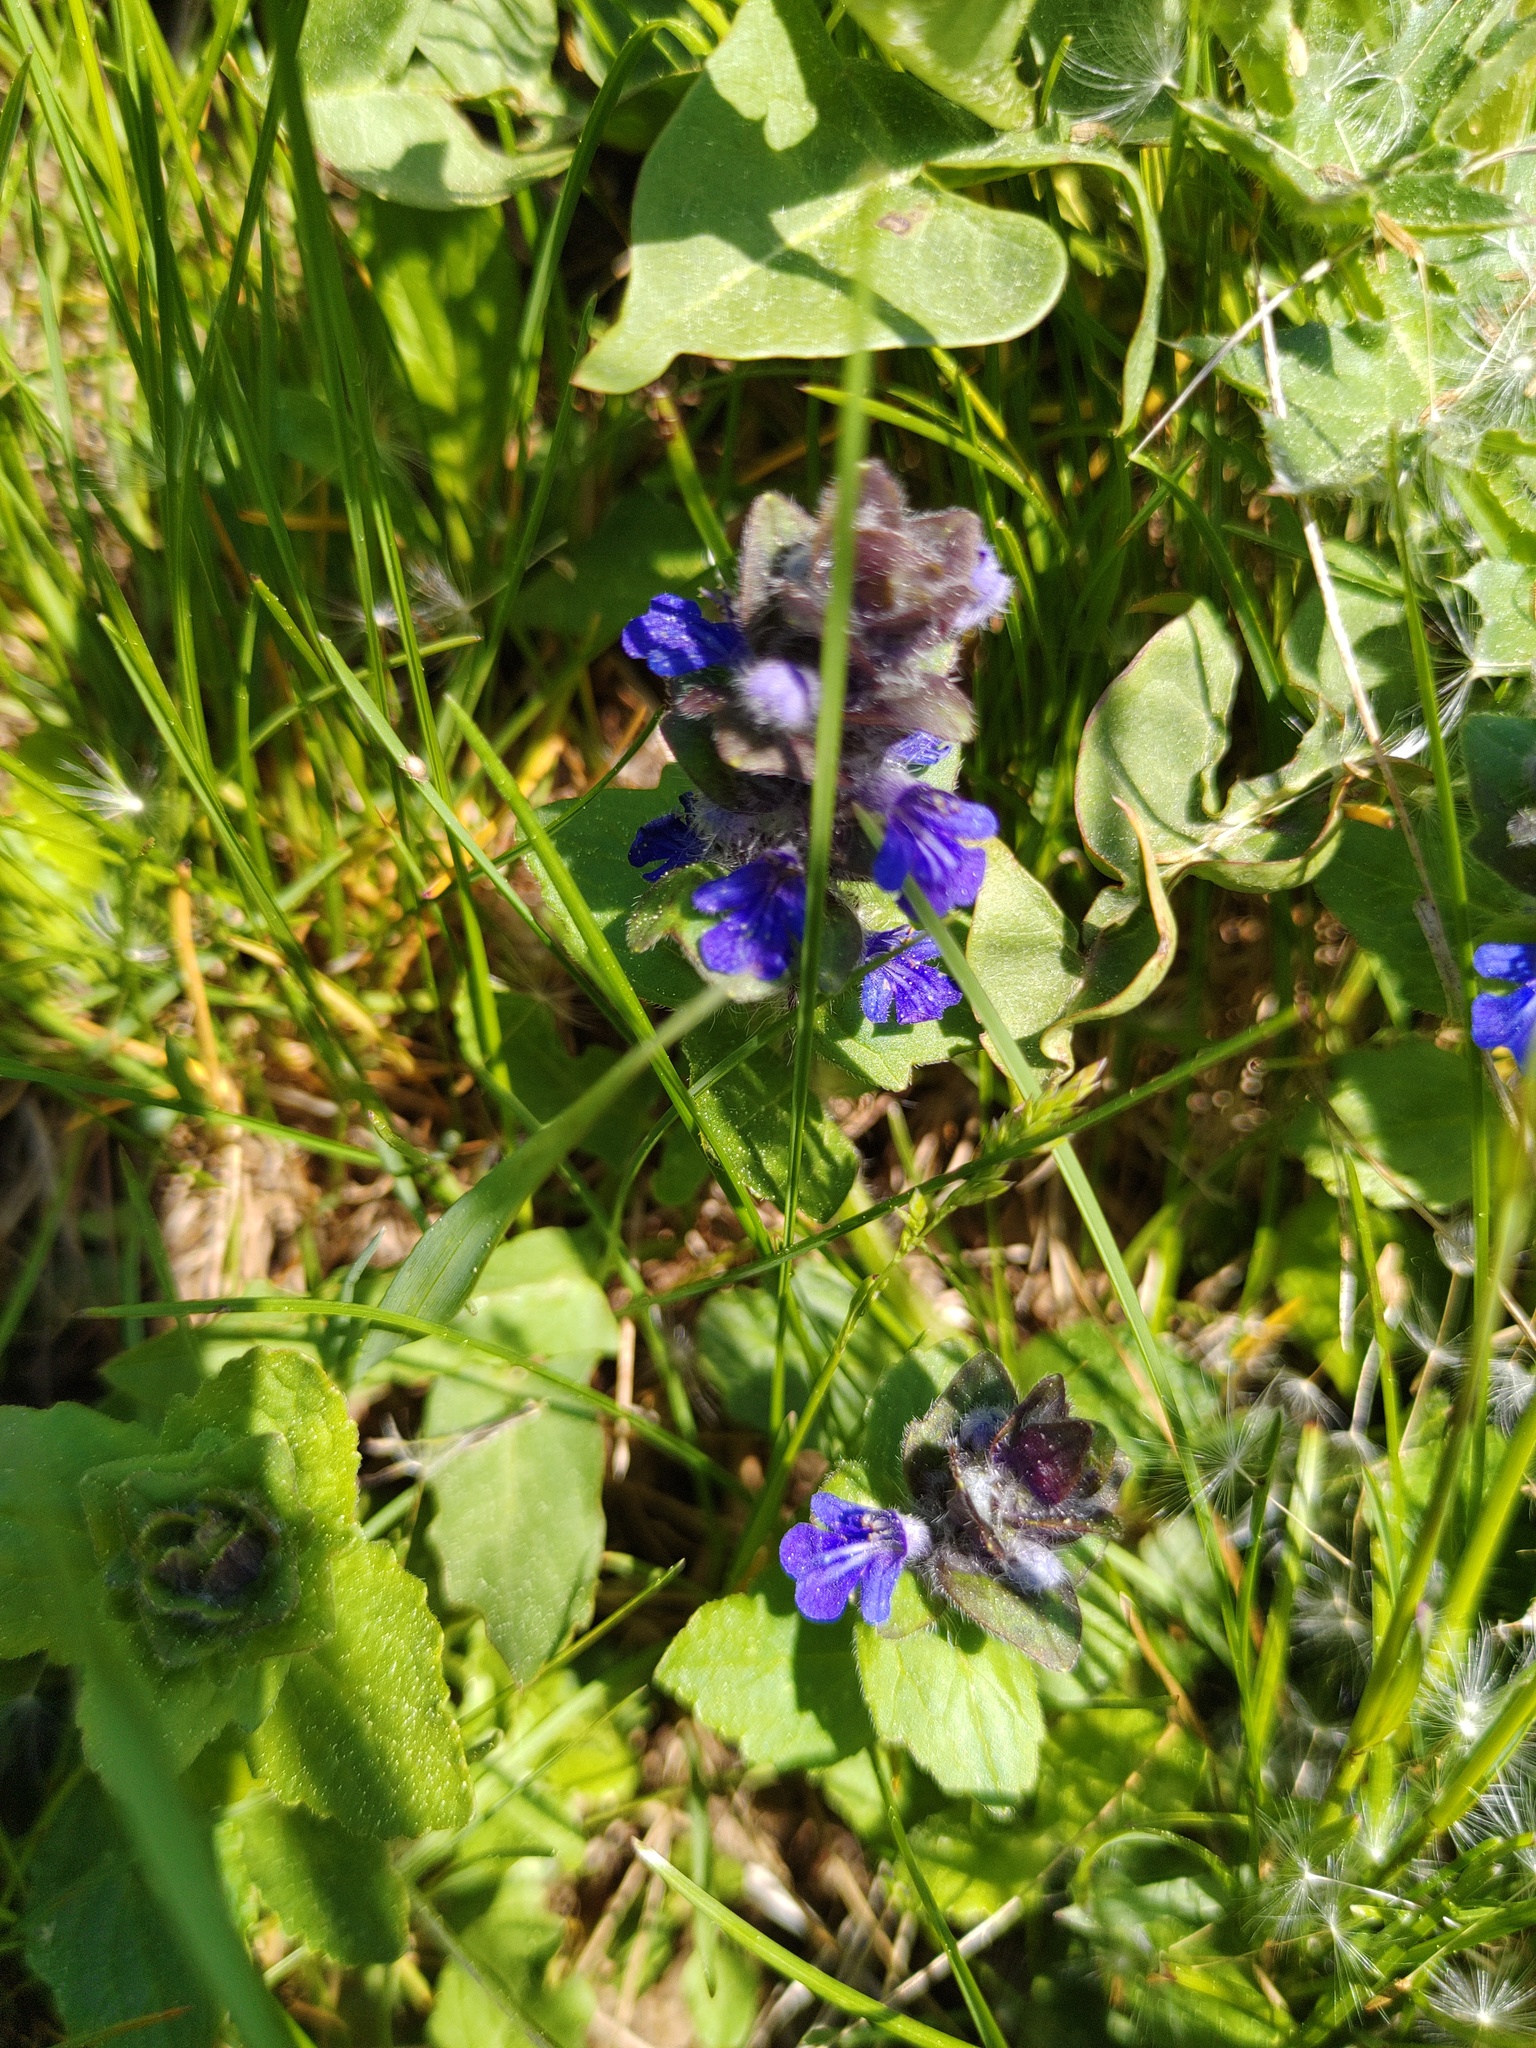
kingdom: Plantae
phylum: Tracheophyta
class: Magnoliopsida
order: Lamiales
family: Lamiaceae
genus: Ajuga
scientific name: Ajuga hybrida
